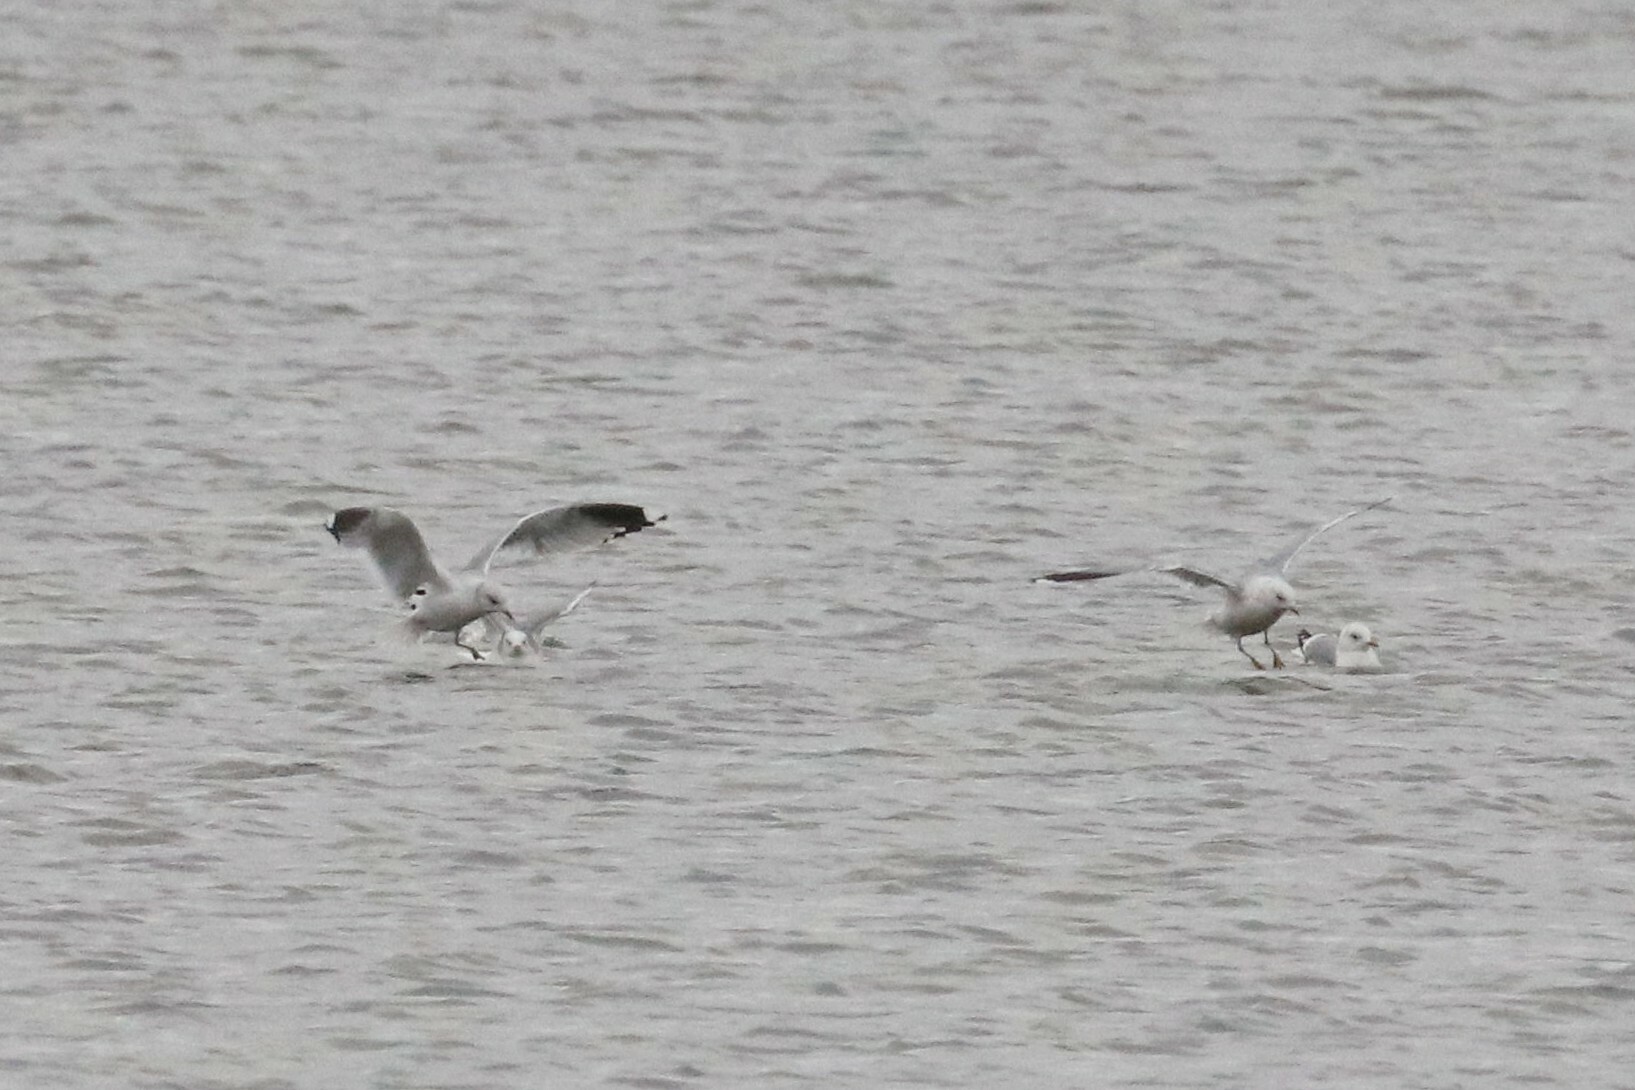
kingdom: Animalia
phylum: Chordata
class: Aves
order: Charadriiformes
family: Laridae
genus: Larus
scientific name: Larus canus
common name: Mew gull
